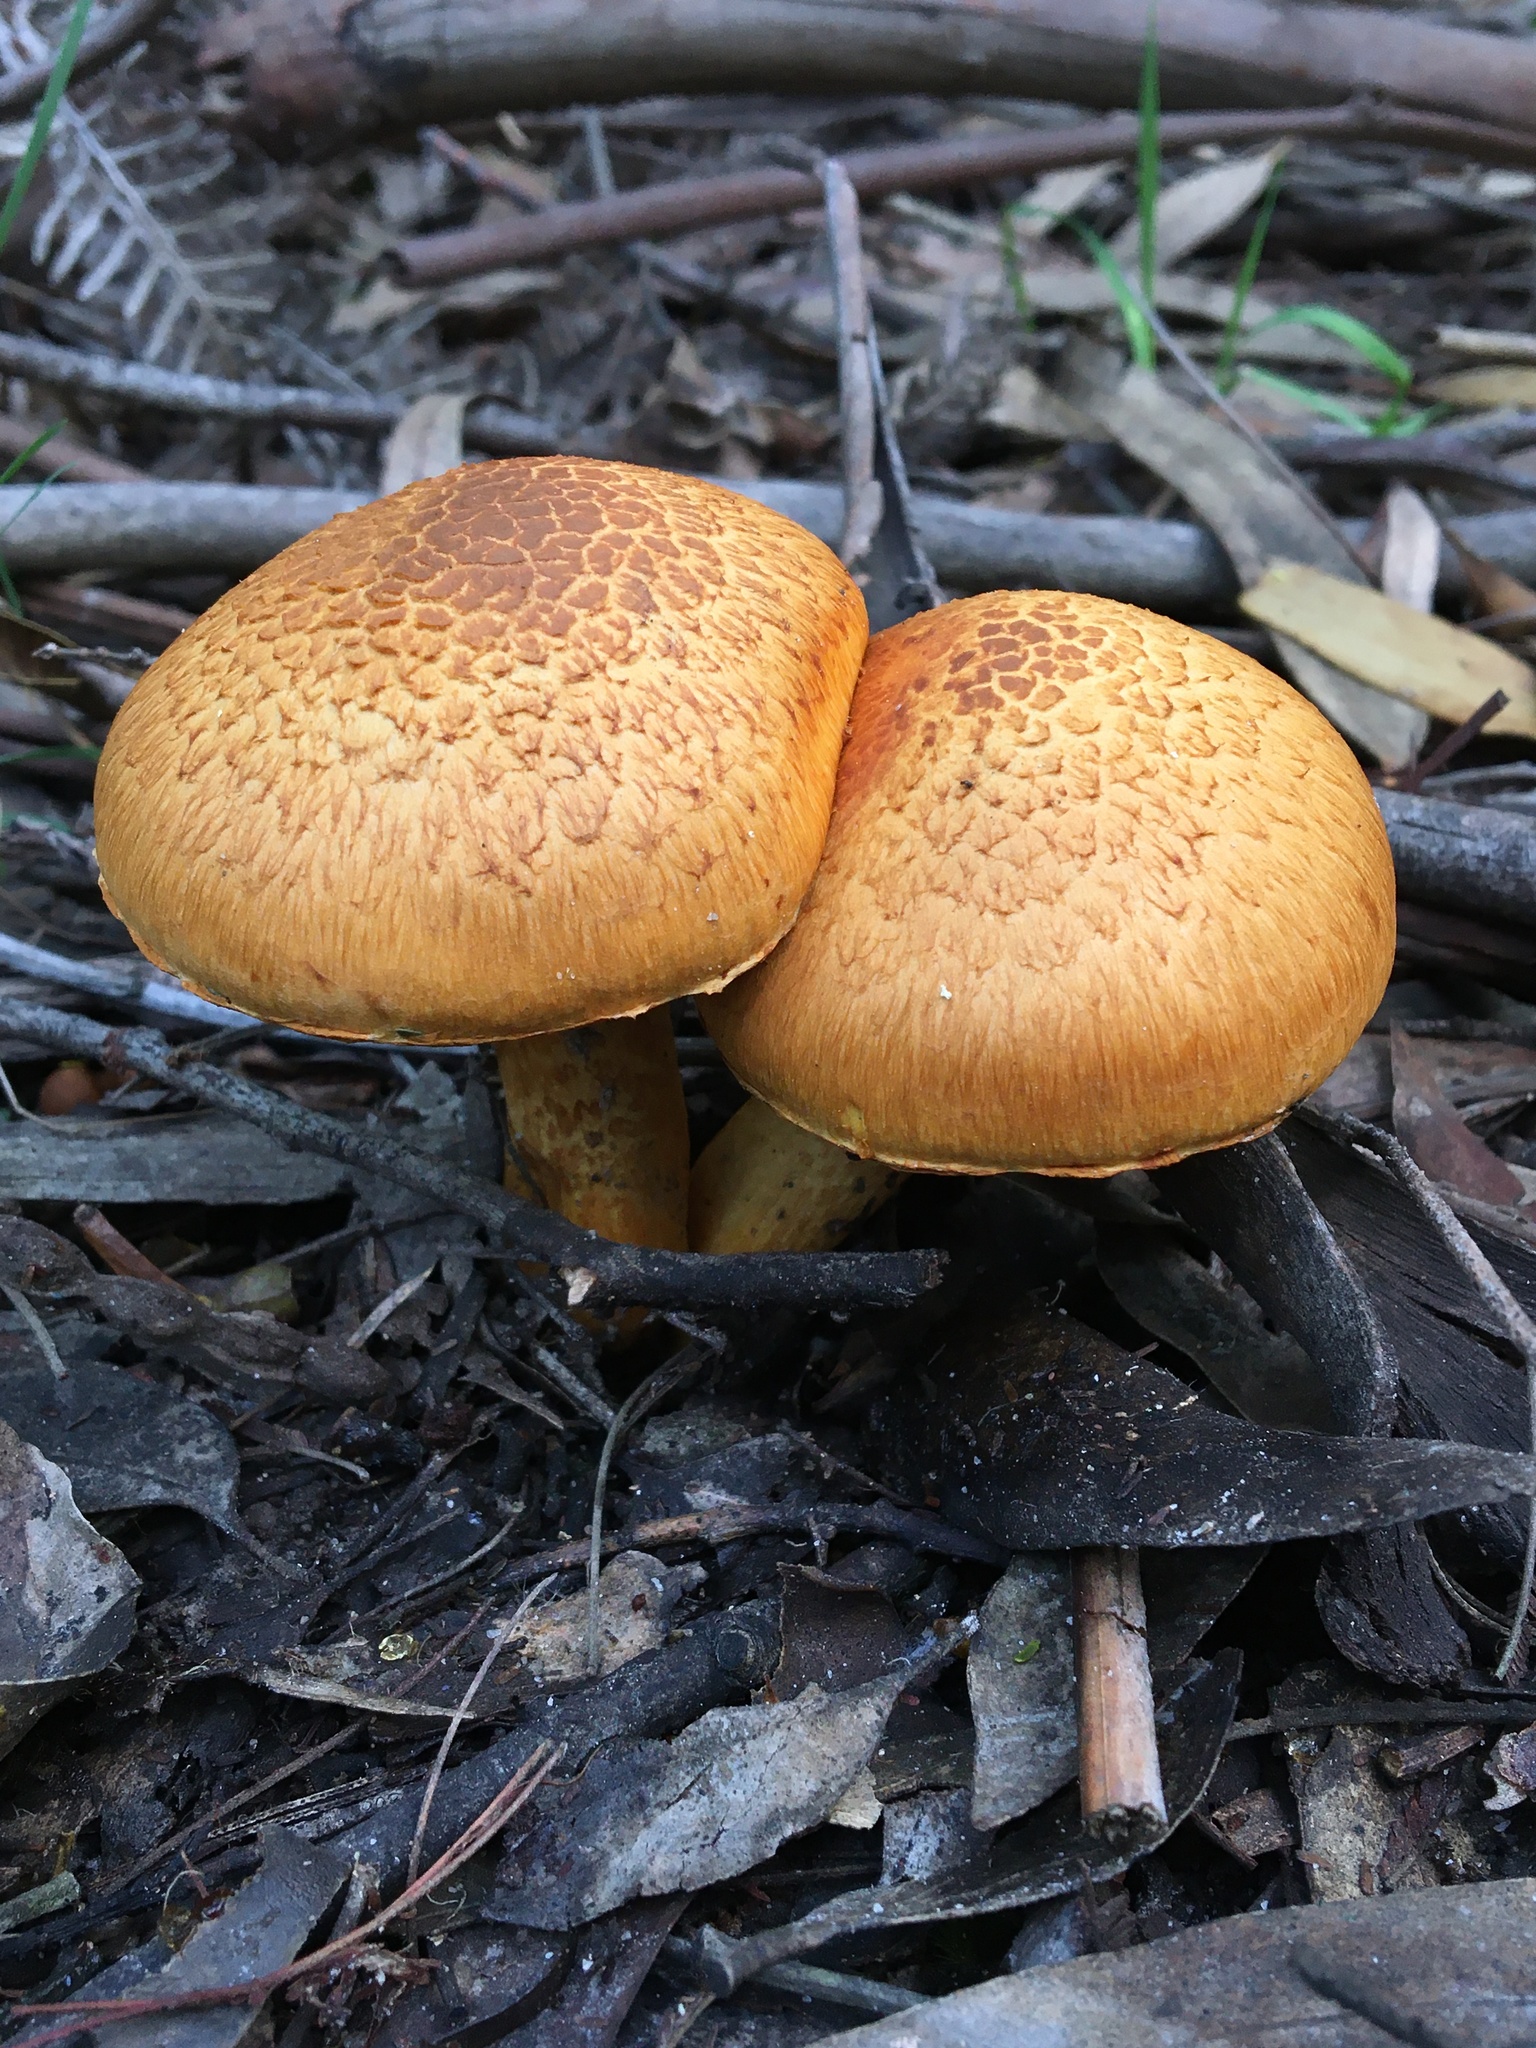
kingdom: Fungi
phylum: Basidiomycota
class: Agaricomycetes
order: Agaricales
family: Hymenogastraceae
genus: Gymnopilus
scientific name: Gymnopilus junonius
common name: Spectacular rustgill
